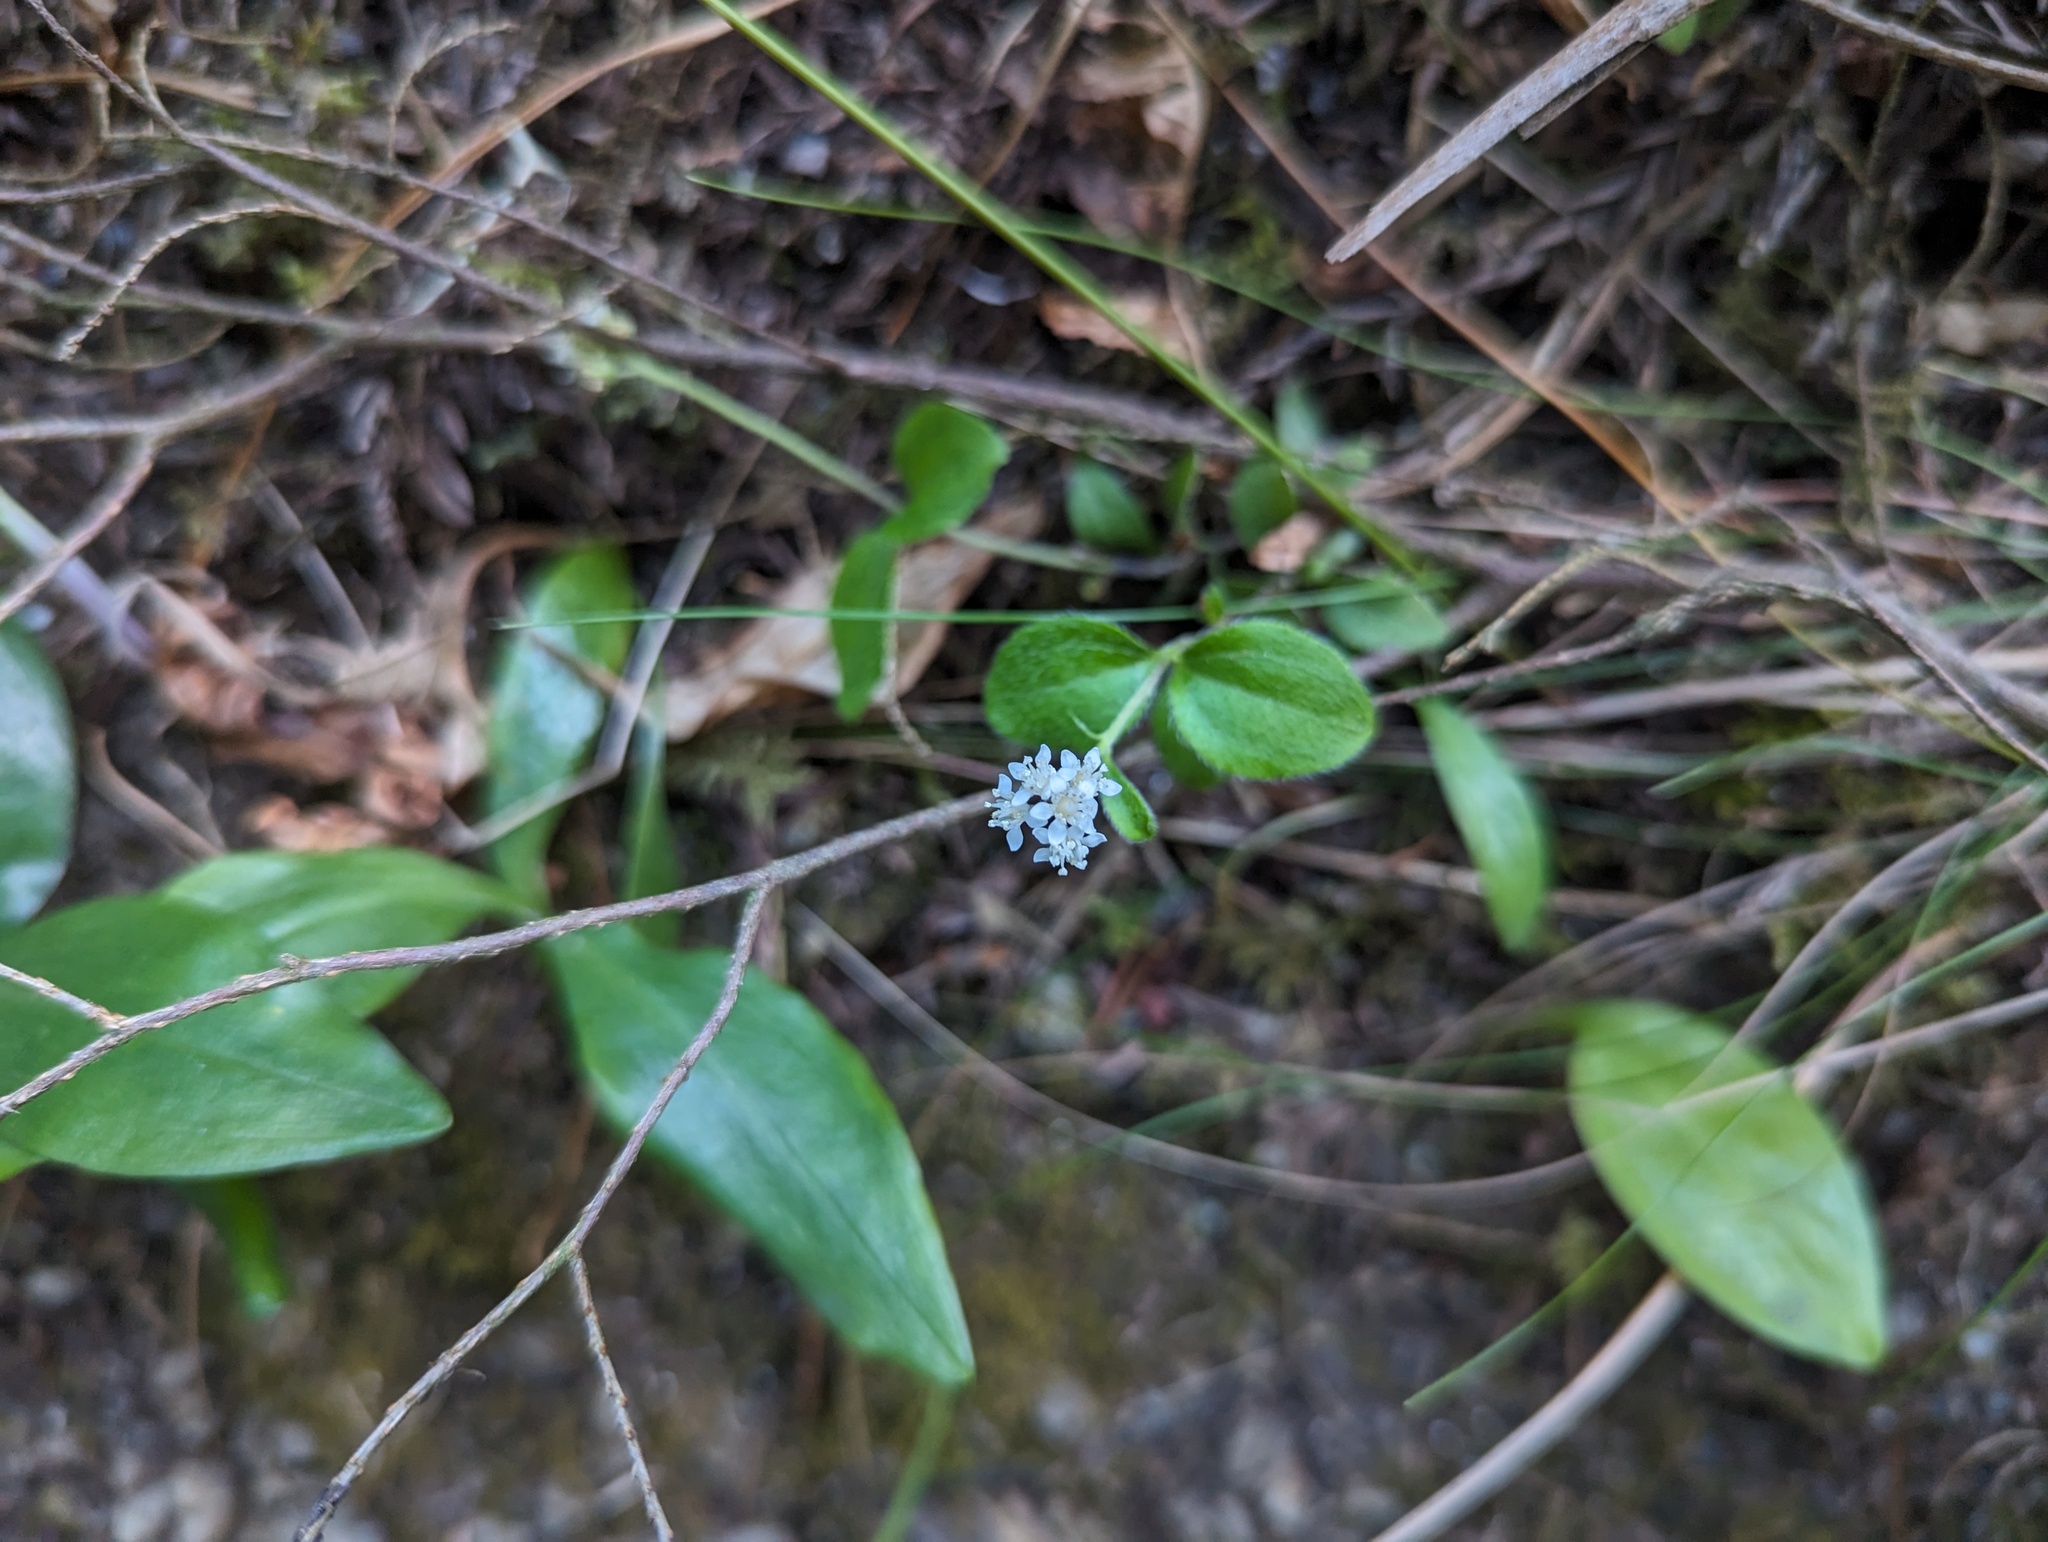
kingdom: Plantae
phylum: Tracheophyta
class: Magnoliopsida
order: Cornales
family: Hydrangeaceae
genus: Whipplea
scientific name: Whipplea modesta
